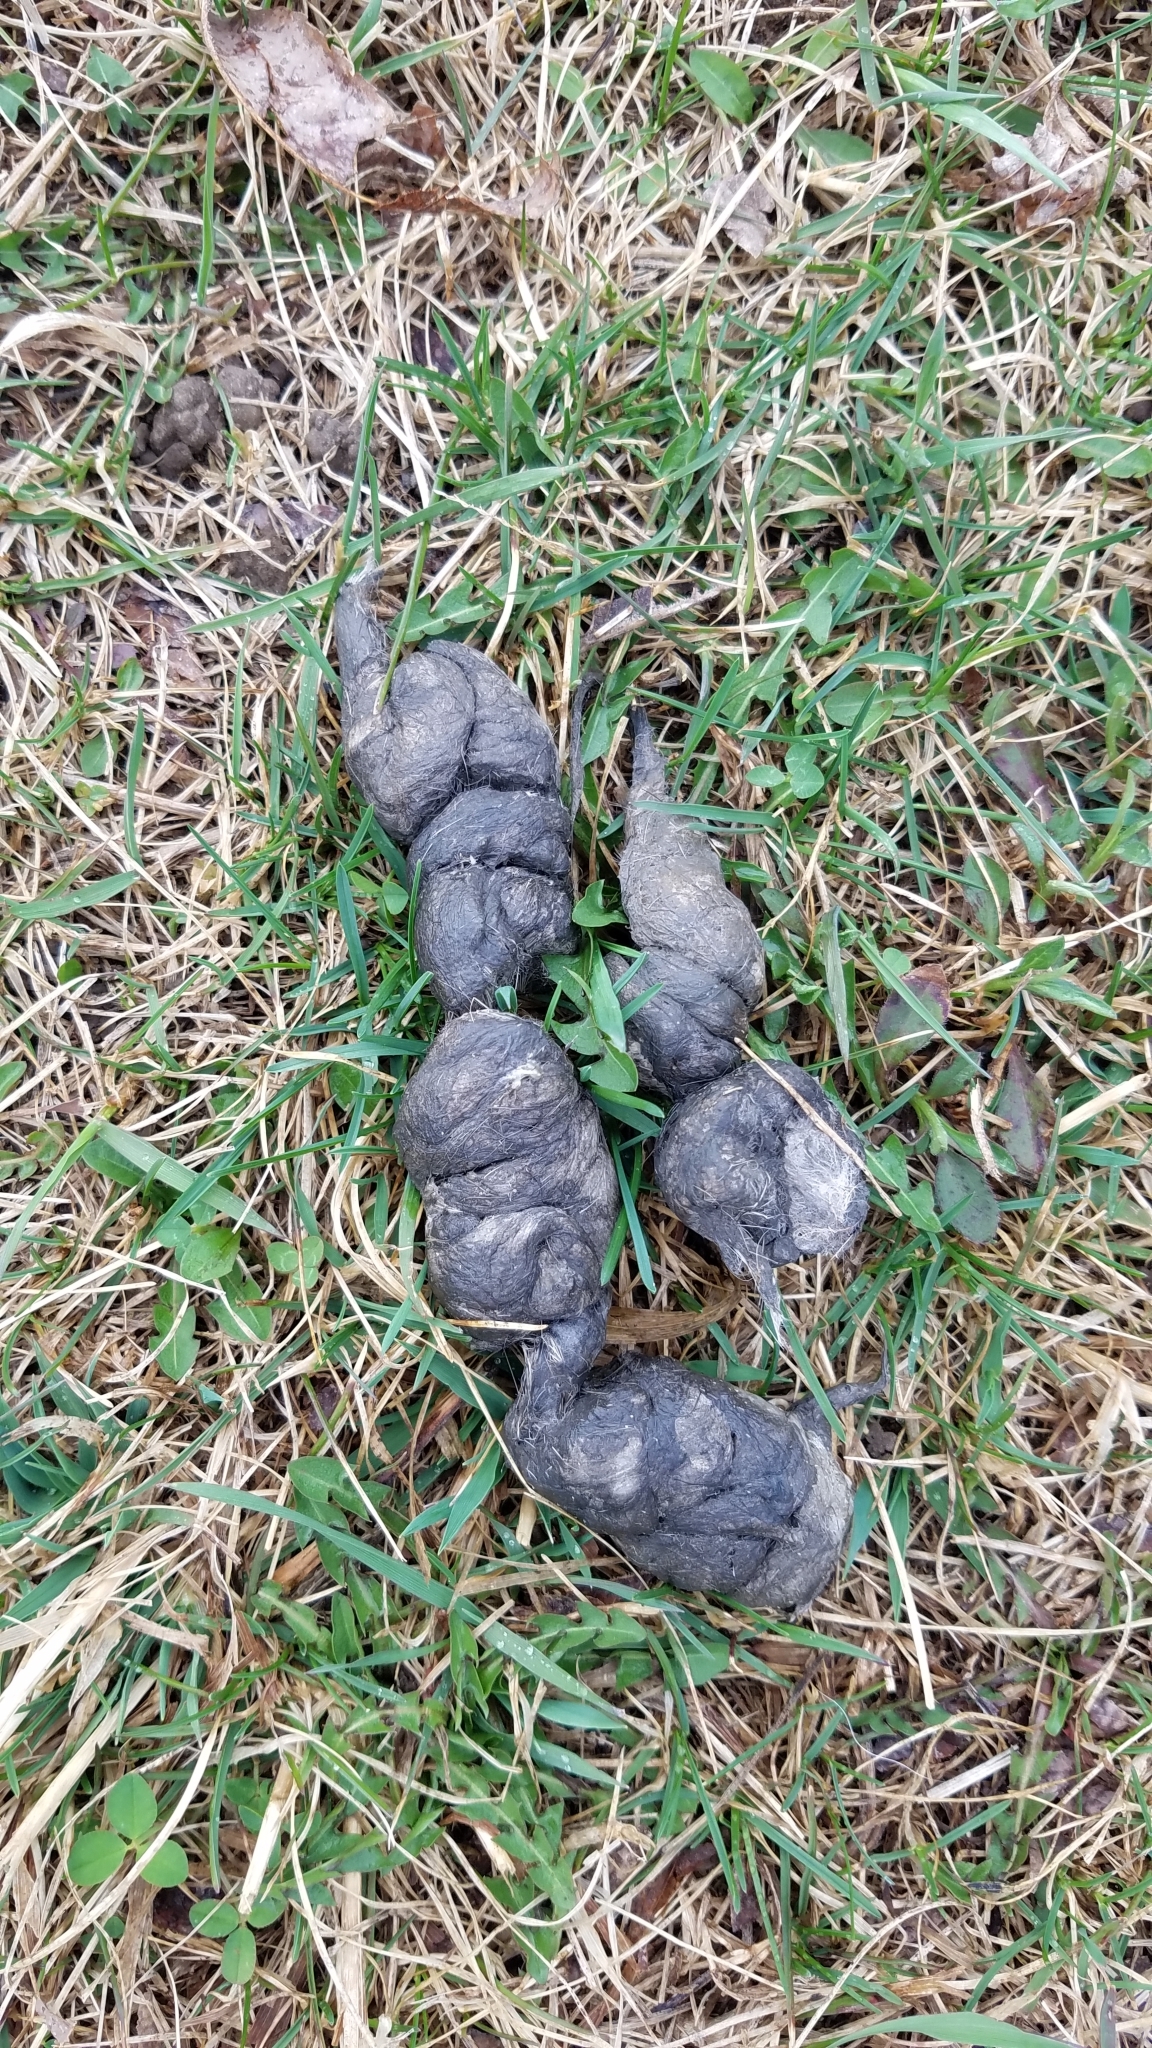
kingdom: Animalia
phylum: Chordata
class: Mammalia
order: Carnivora
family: Canidae
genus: Canis
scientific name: Canis latrans
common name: Coyote
